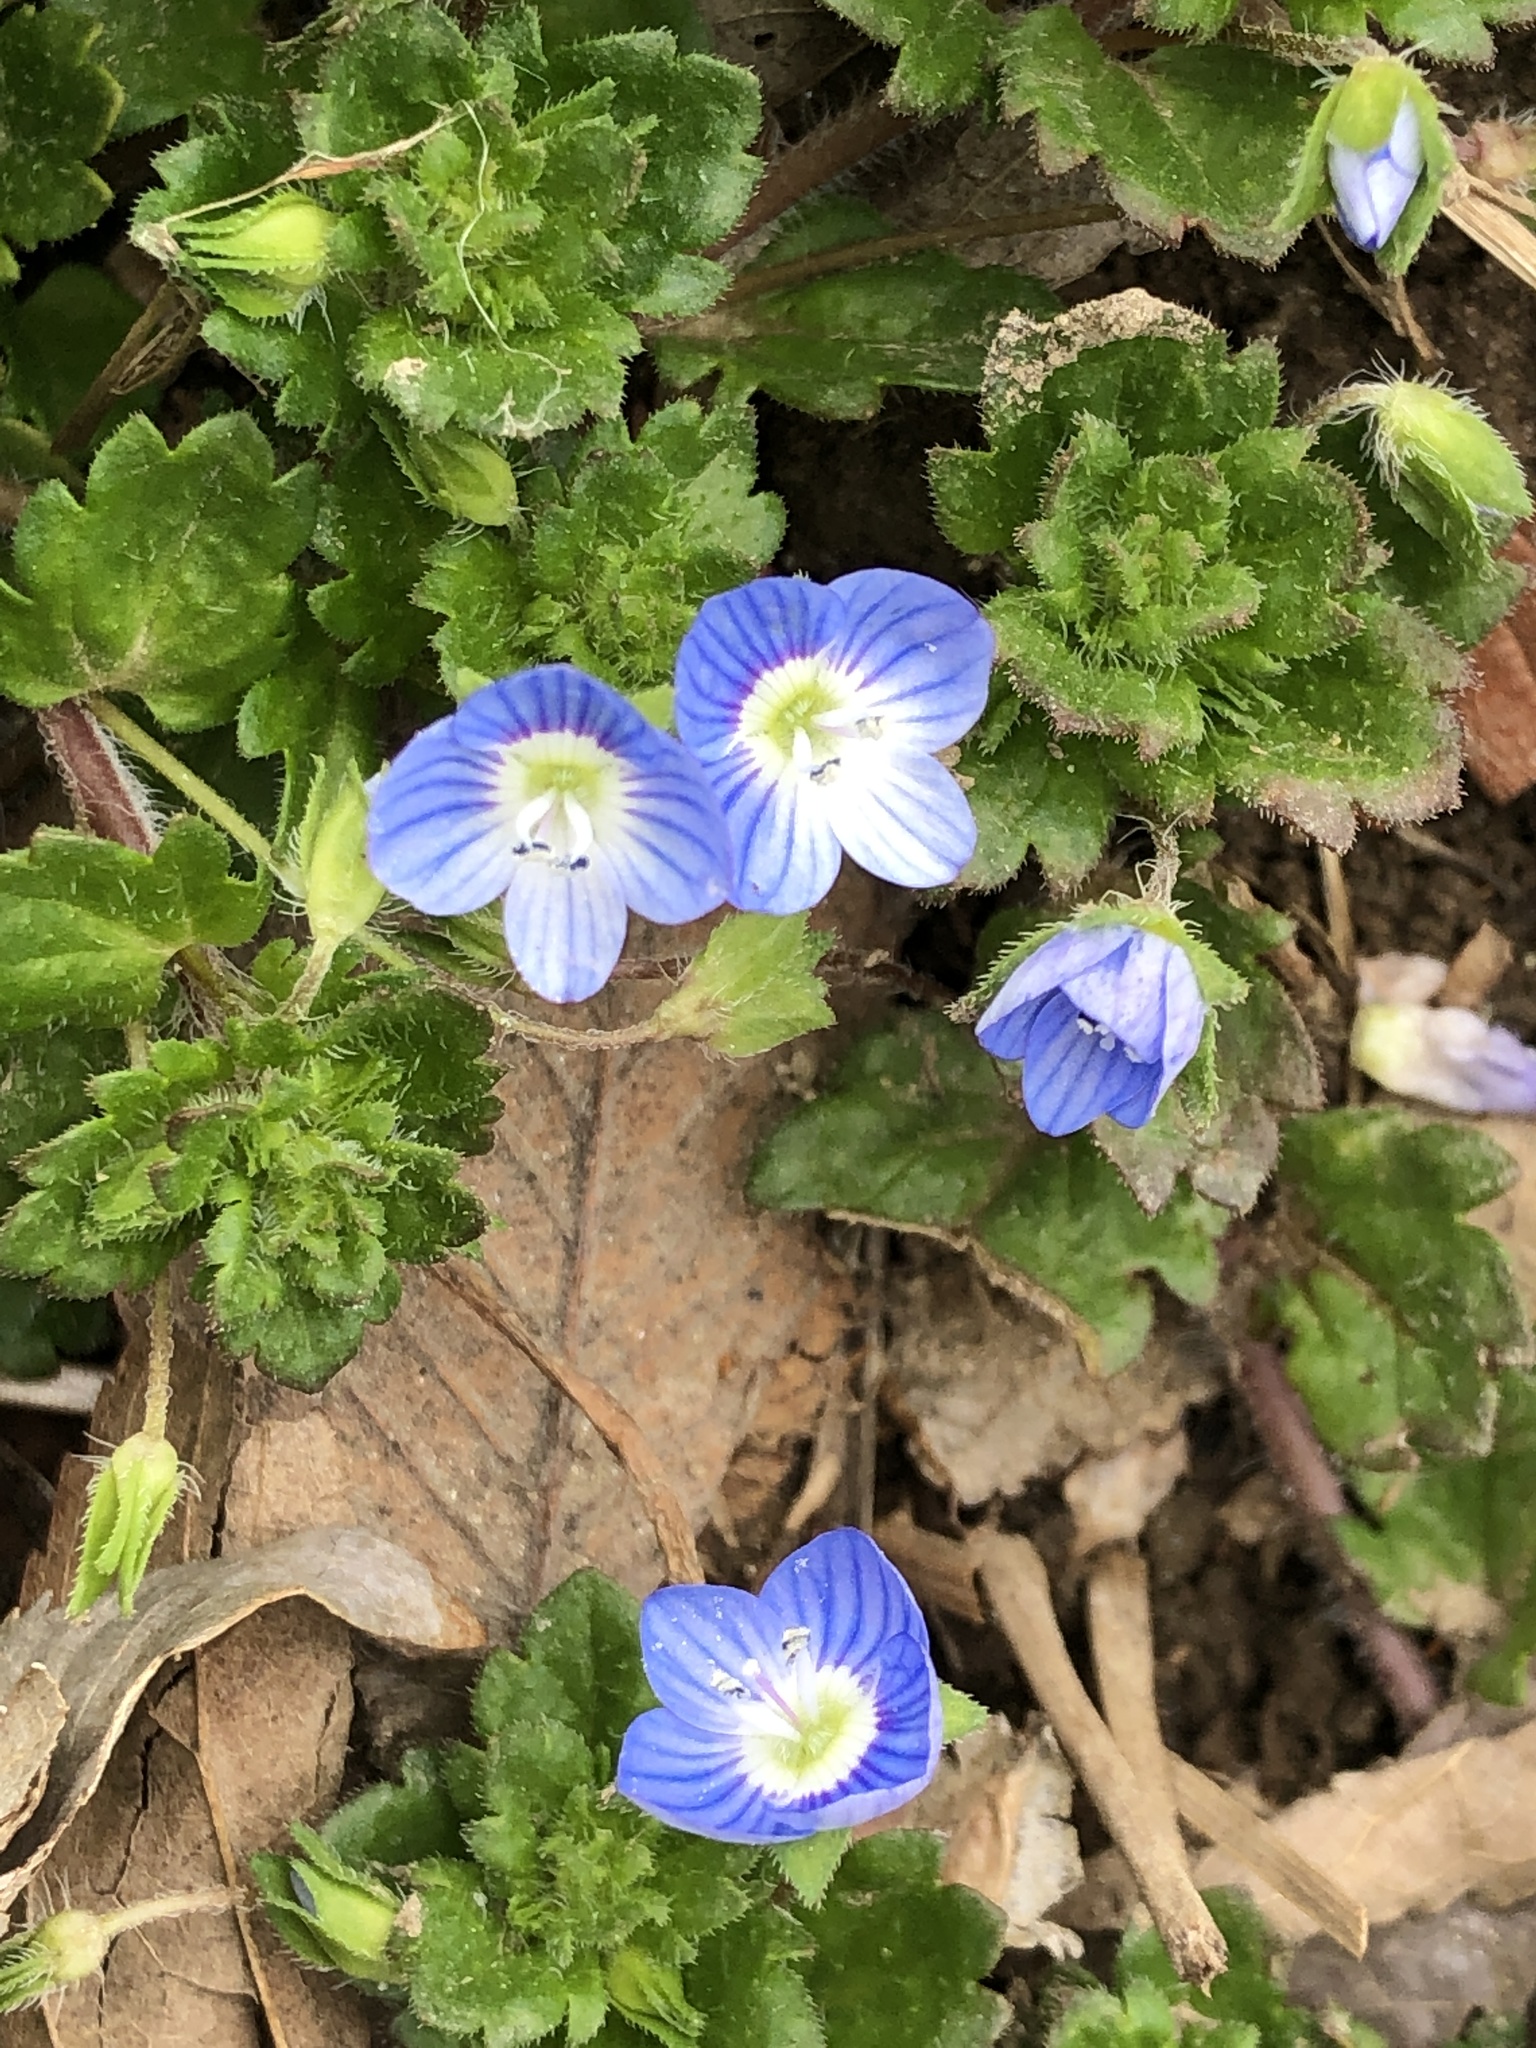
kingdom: Plantae
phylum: Tracheophyta
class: Magnoliopsida
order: Lamiales
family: Plantaginaceae
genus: Veronica
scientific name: Veronica persica
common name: Common field-speedwell
